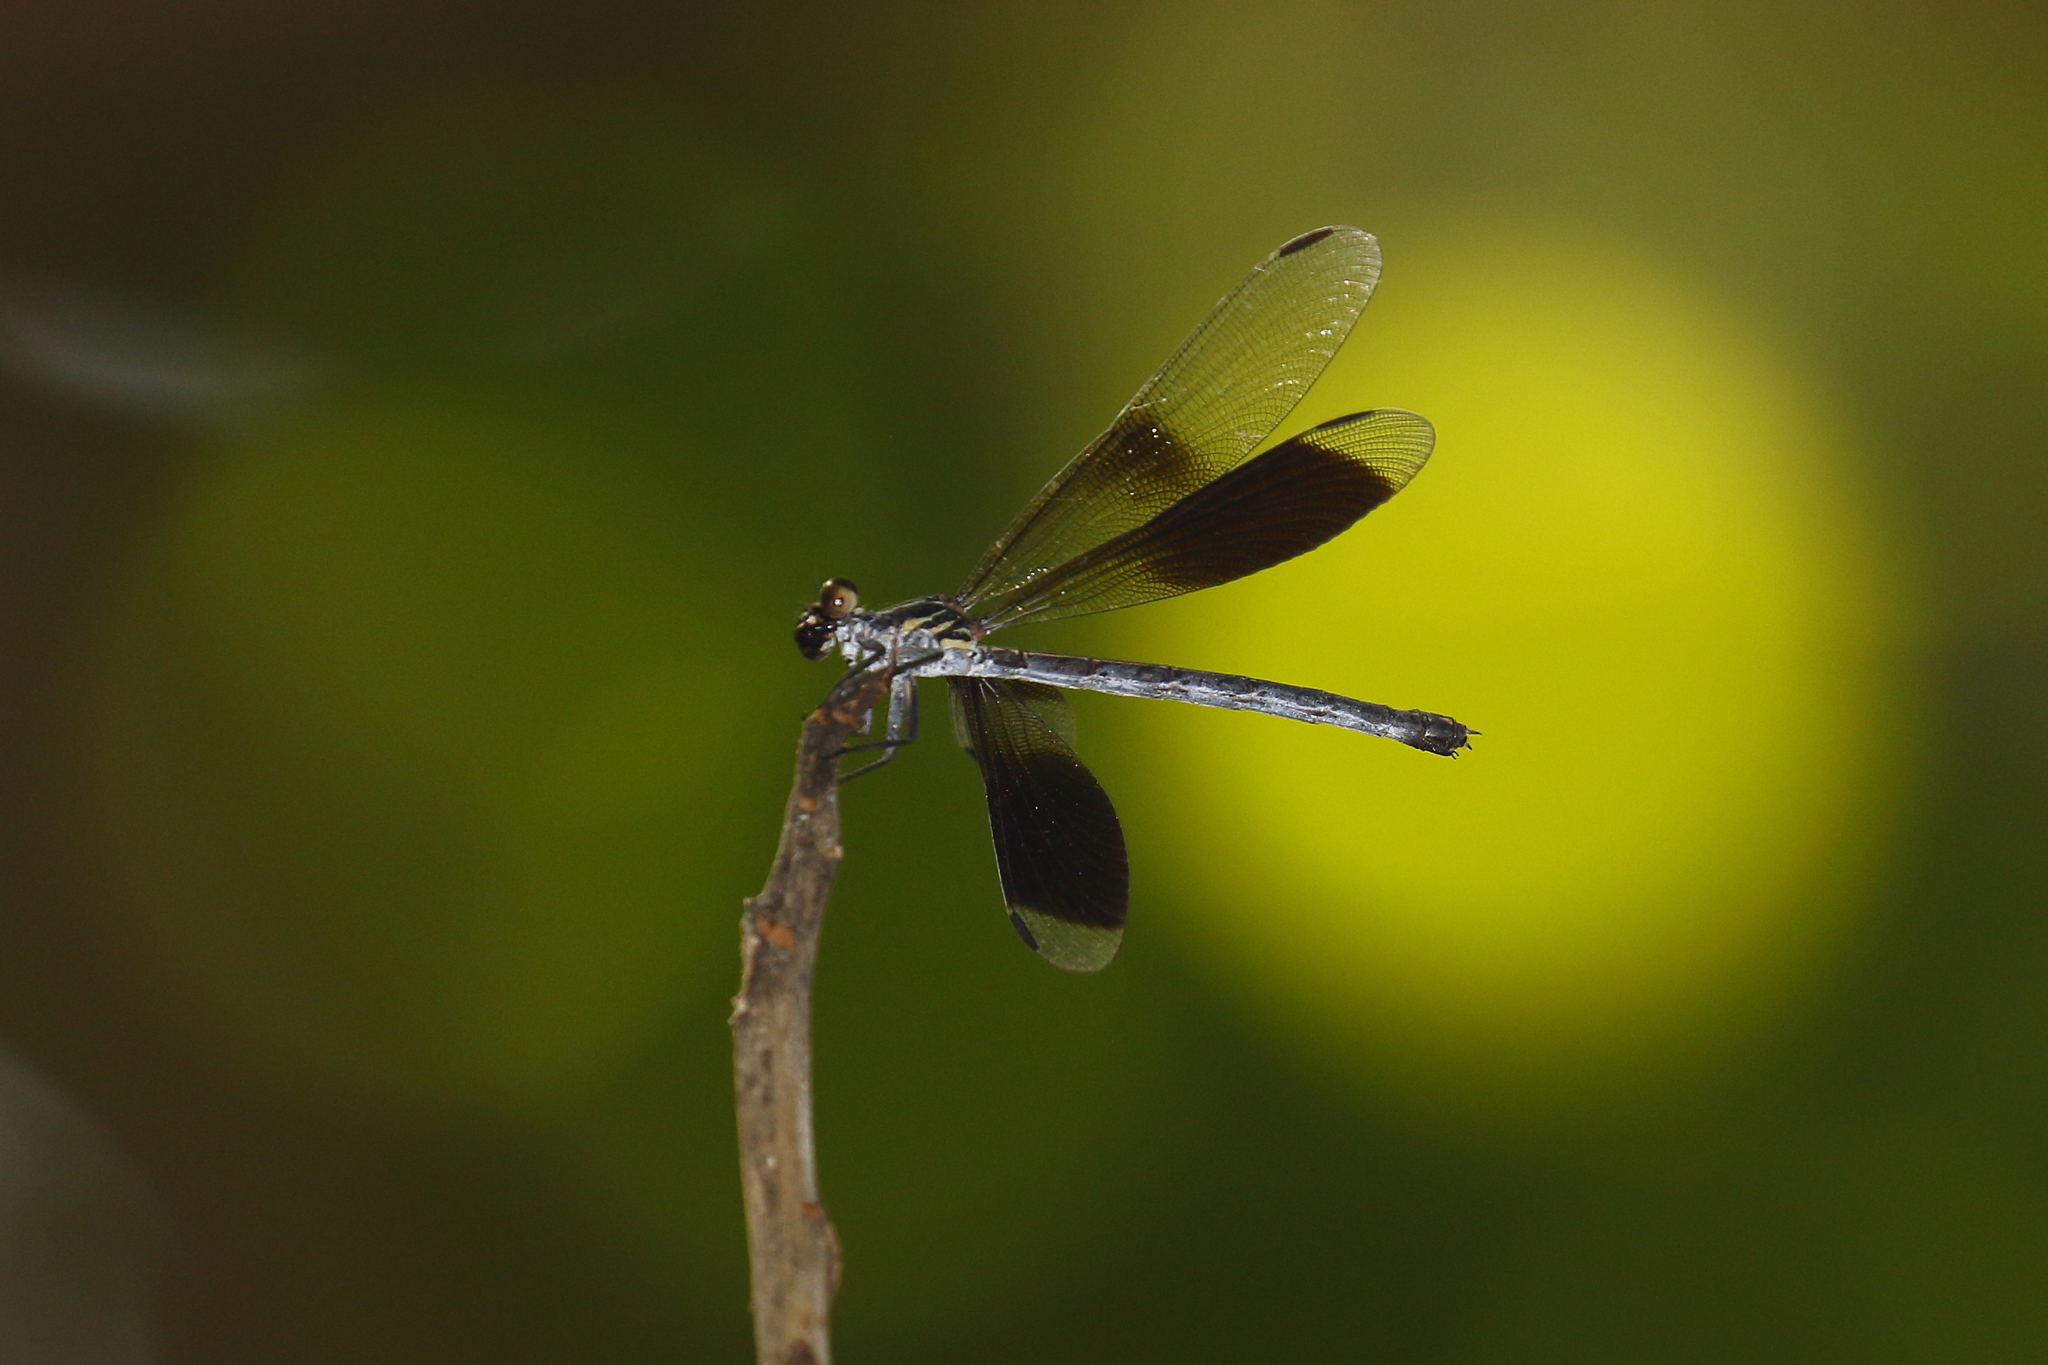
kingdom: Animalia
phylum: Arthropoda
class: Insecta
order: Odonata
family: Euphaeidae
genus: Euphaea
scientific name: Euphaea formosa
